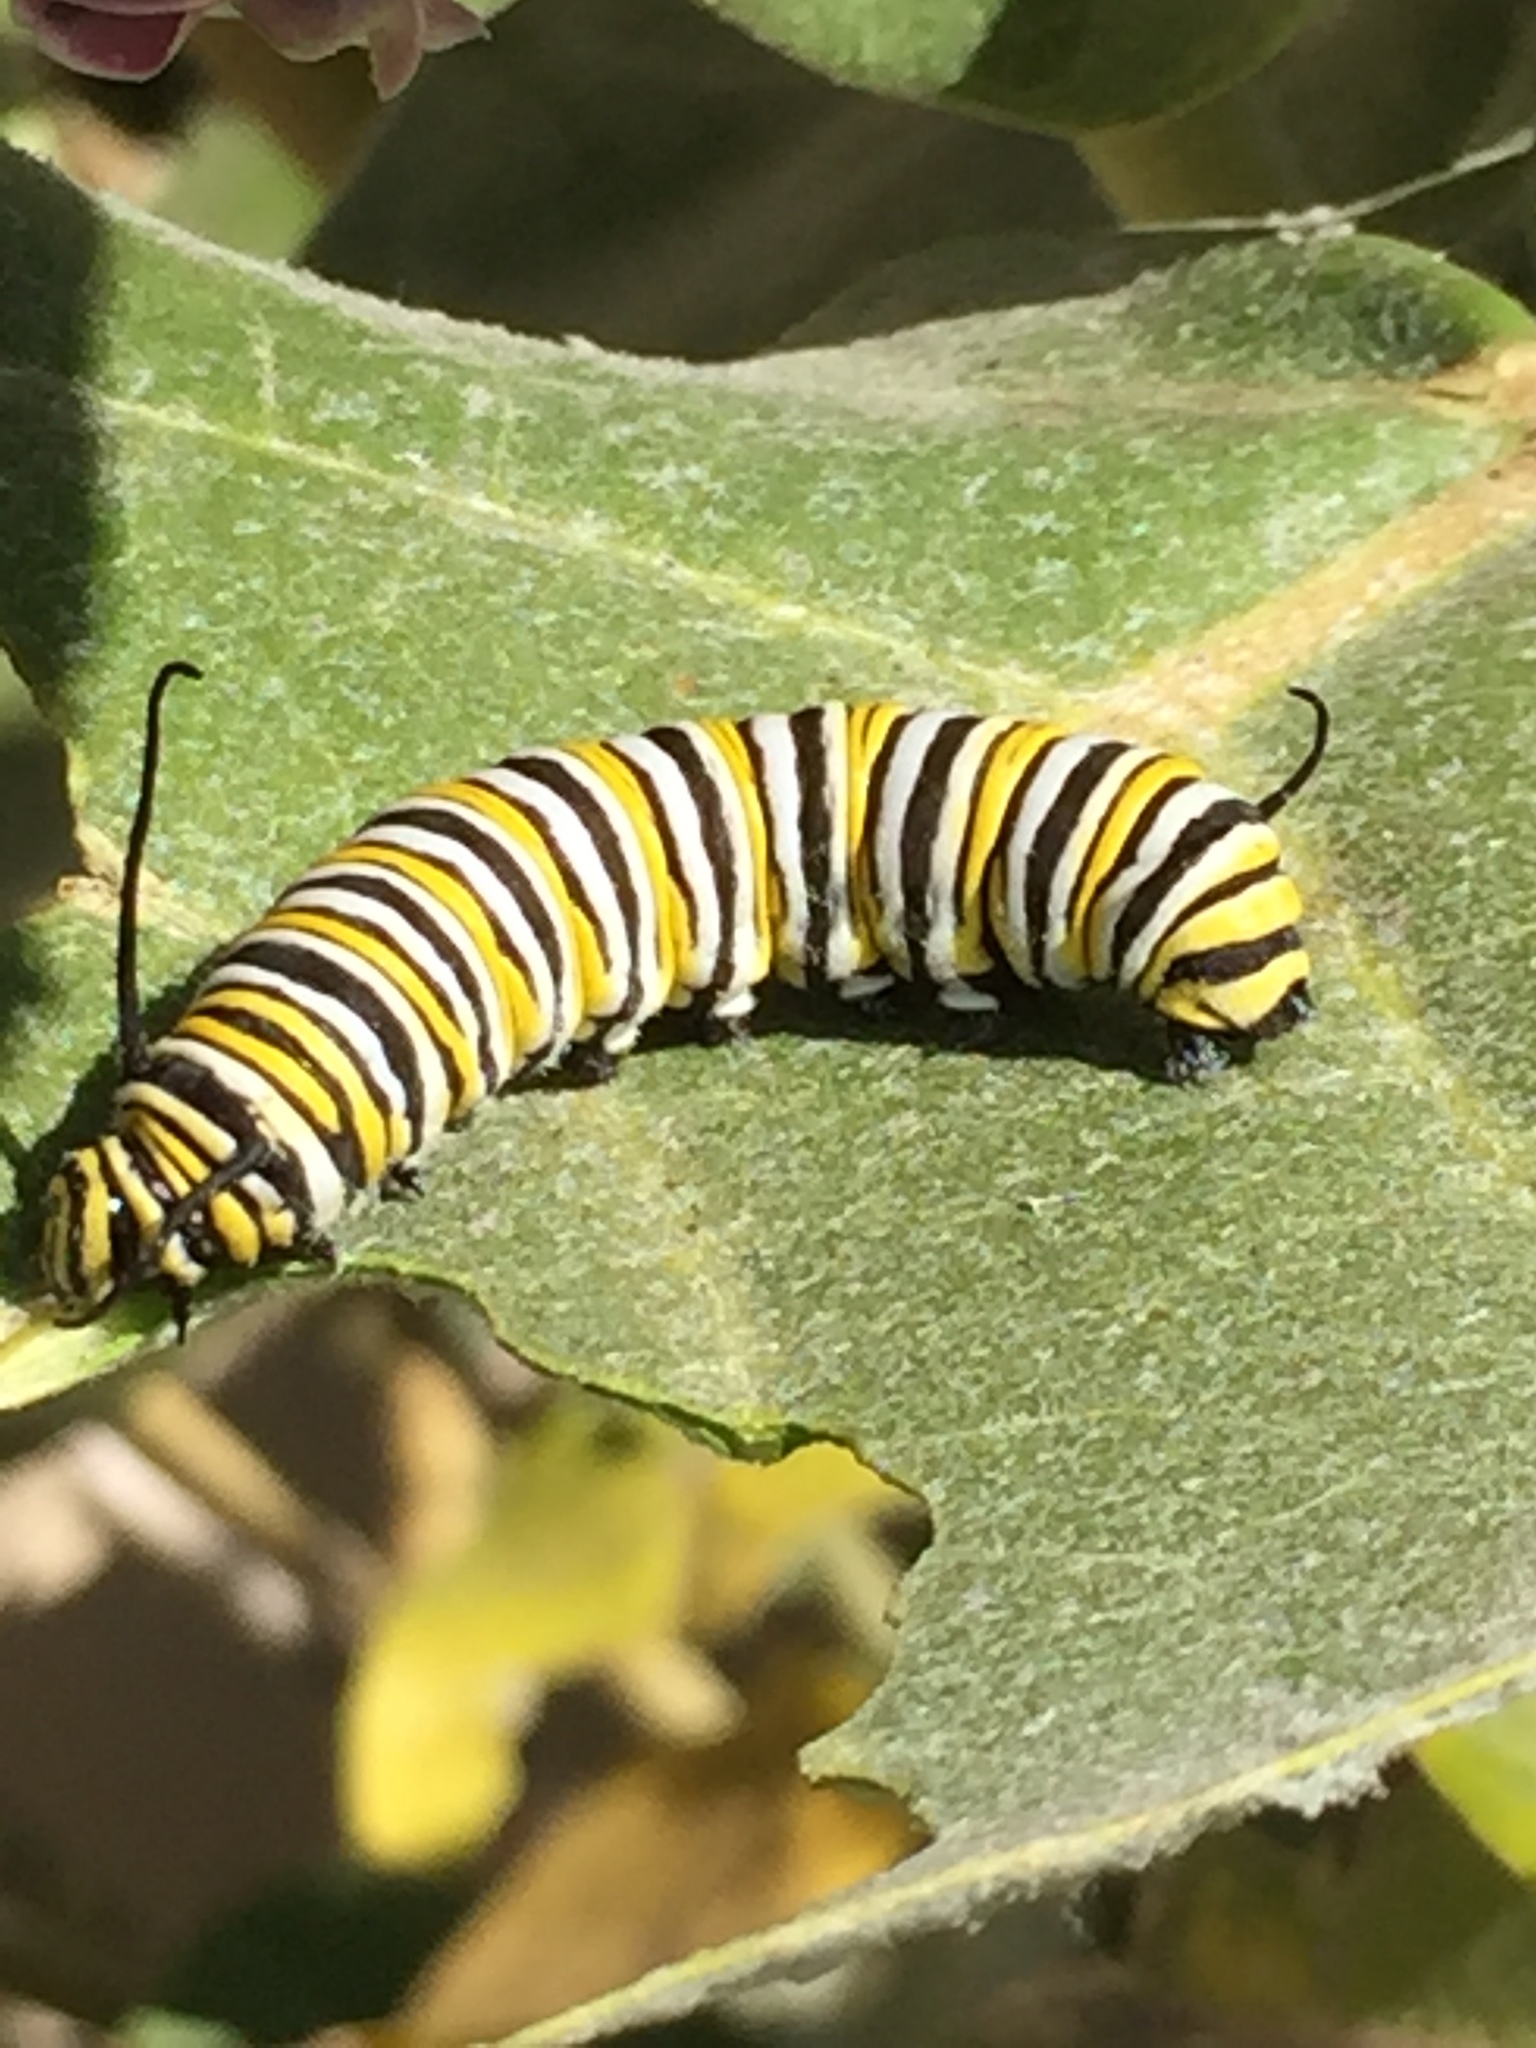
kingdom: Animalia
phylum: Arthropoda
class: Insecta
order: Lepidoptera
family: Nymphalidae
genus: Danaus
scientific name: Danaus plexippus
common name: Monarch
